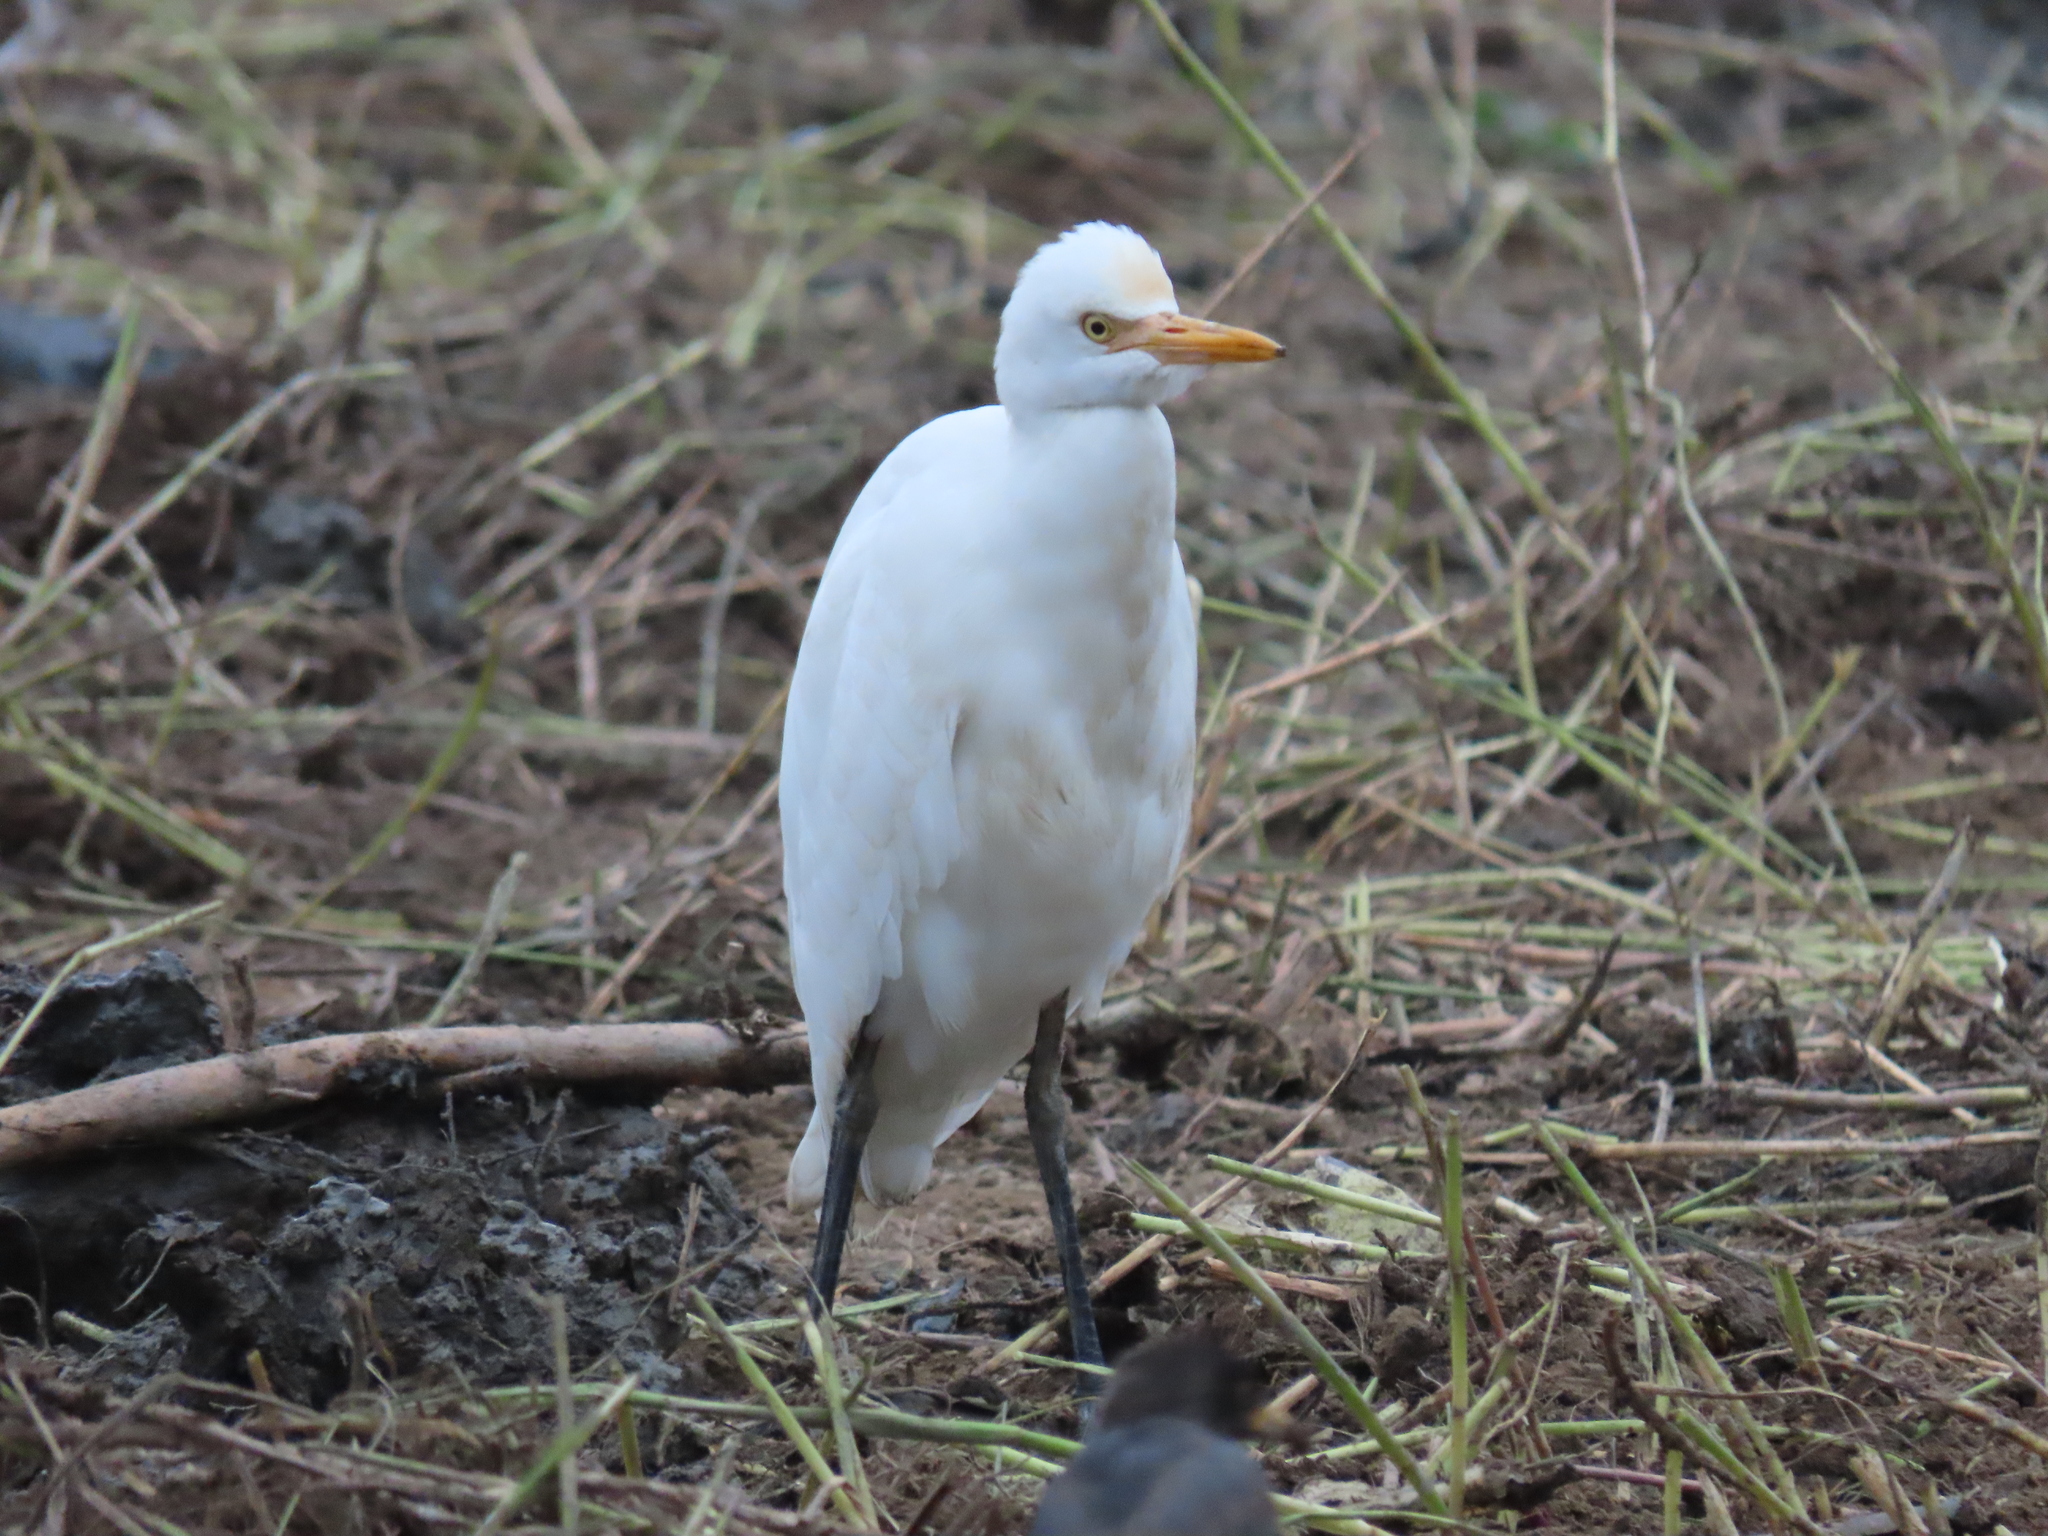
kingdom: Animalia
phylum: Chordata
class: Aves
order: Pelecaniformes
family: Ardeidae
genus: Bubulcus
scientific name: Bubulcus coromandus
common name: Eastern cattle egret
